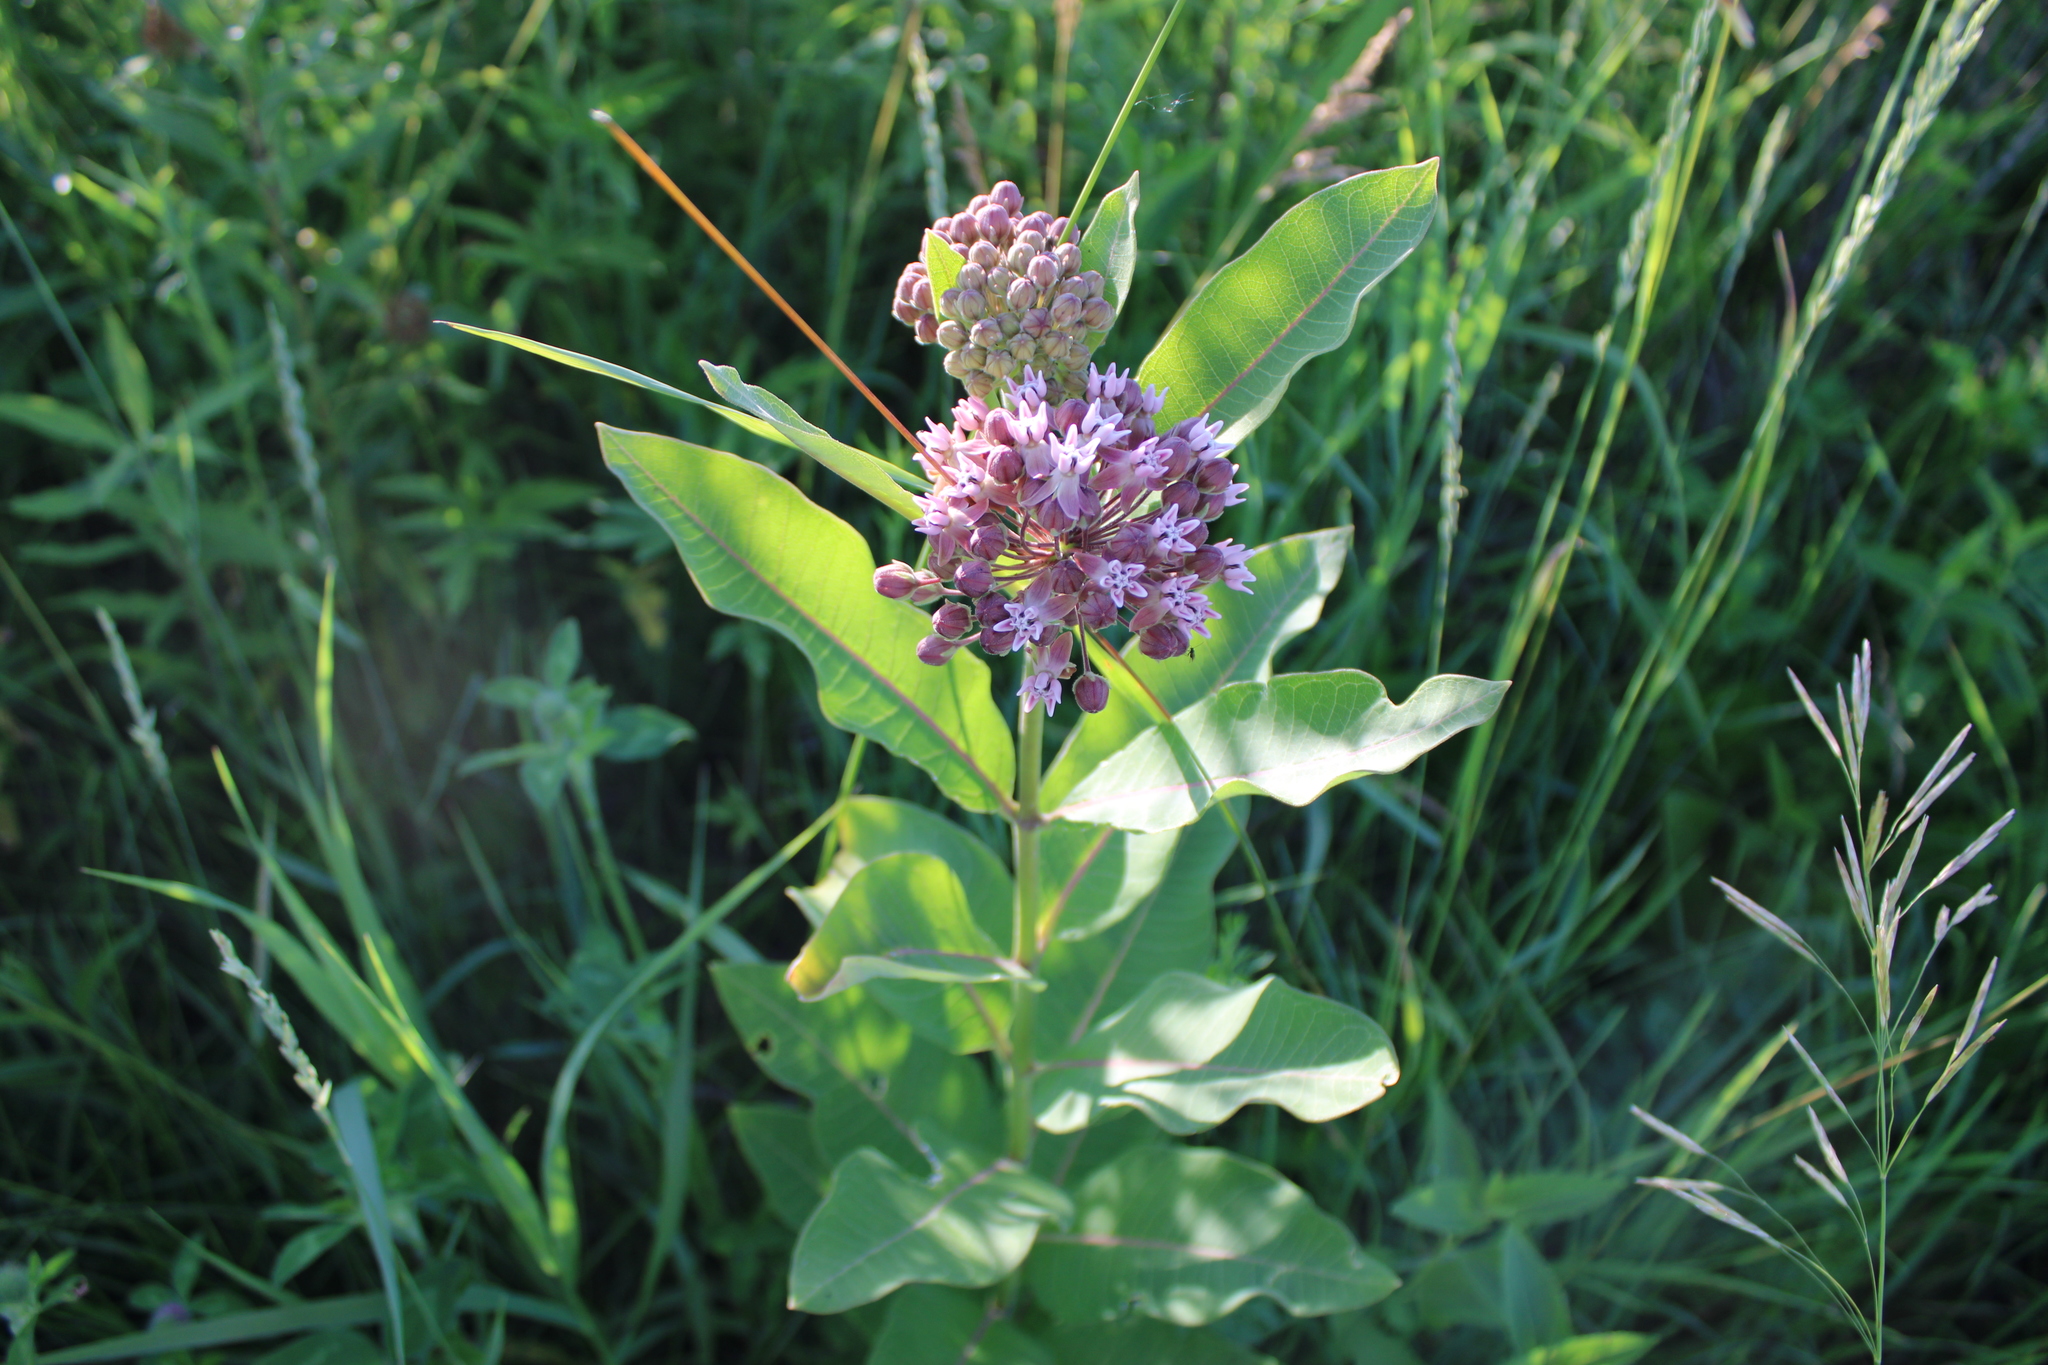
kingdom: Plantae
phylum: Tracheophyta
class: Magnoliopsida
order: Gentianales
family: Apocynaceae
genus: Asclepias
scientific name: Asclepias syriaca
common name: Common milkweed
